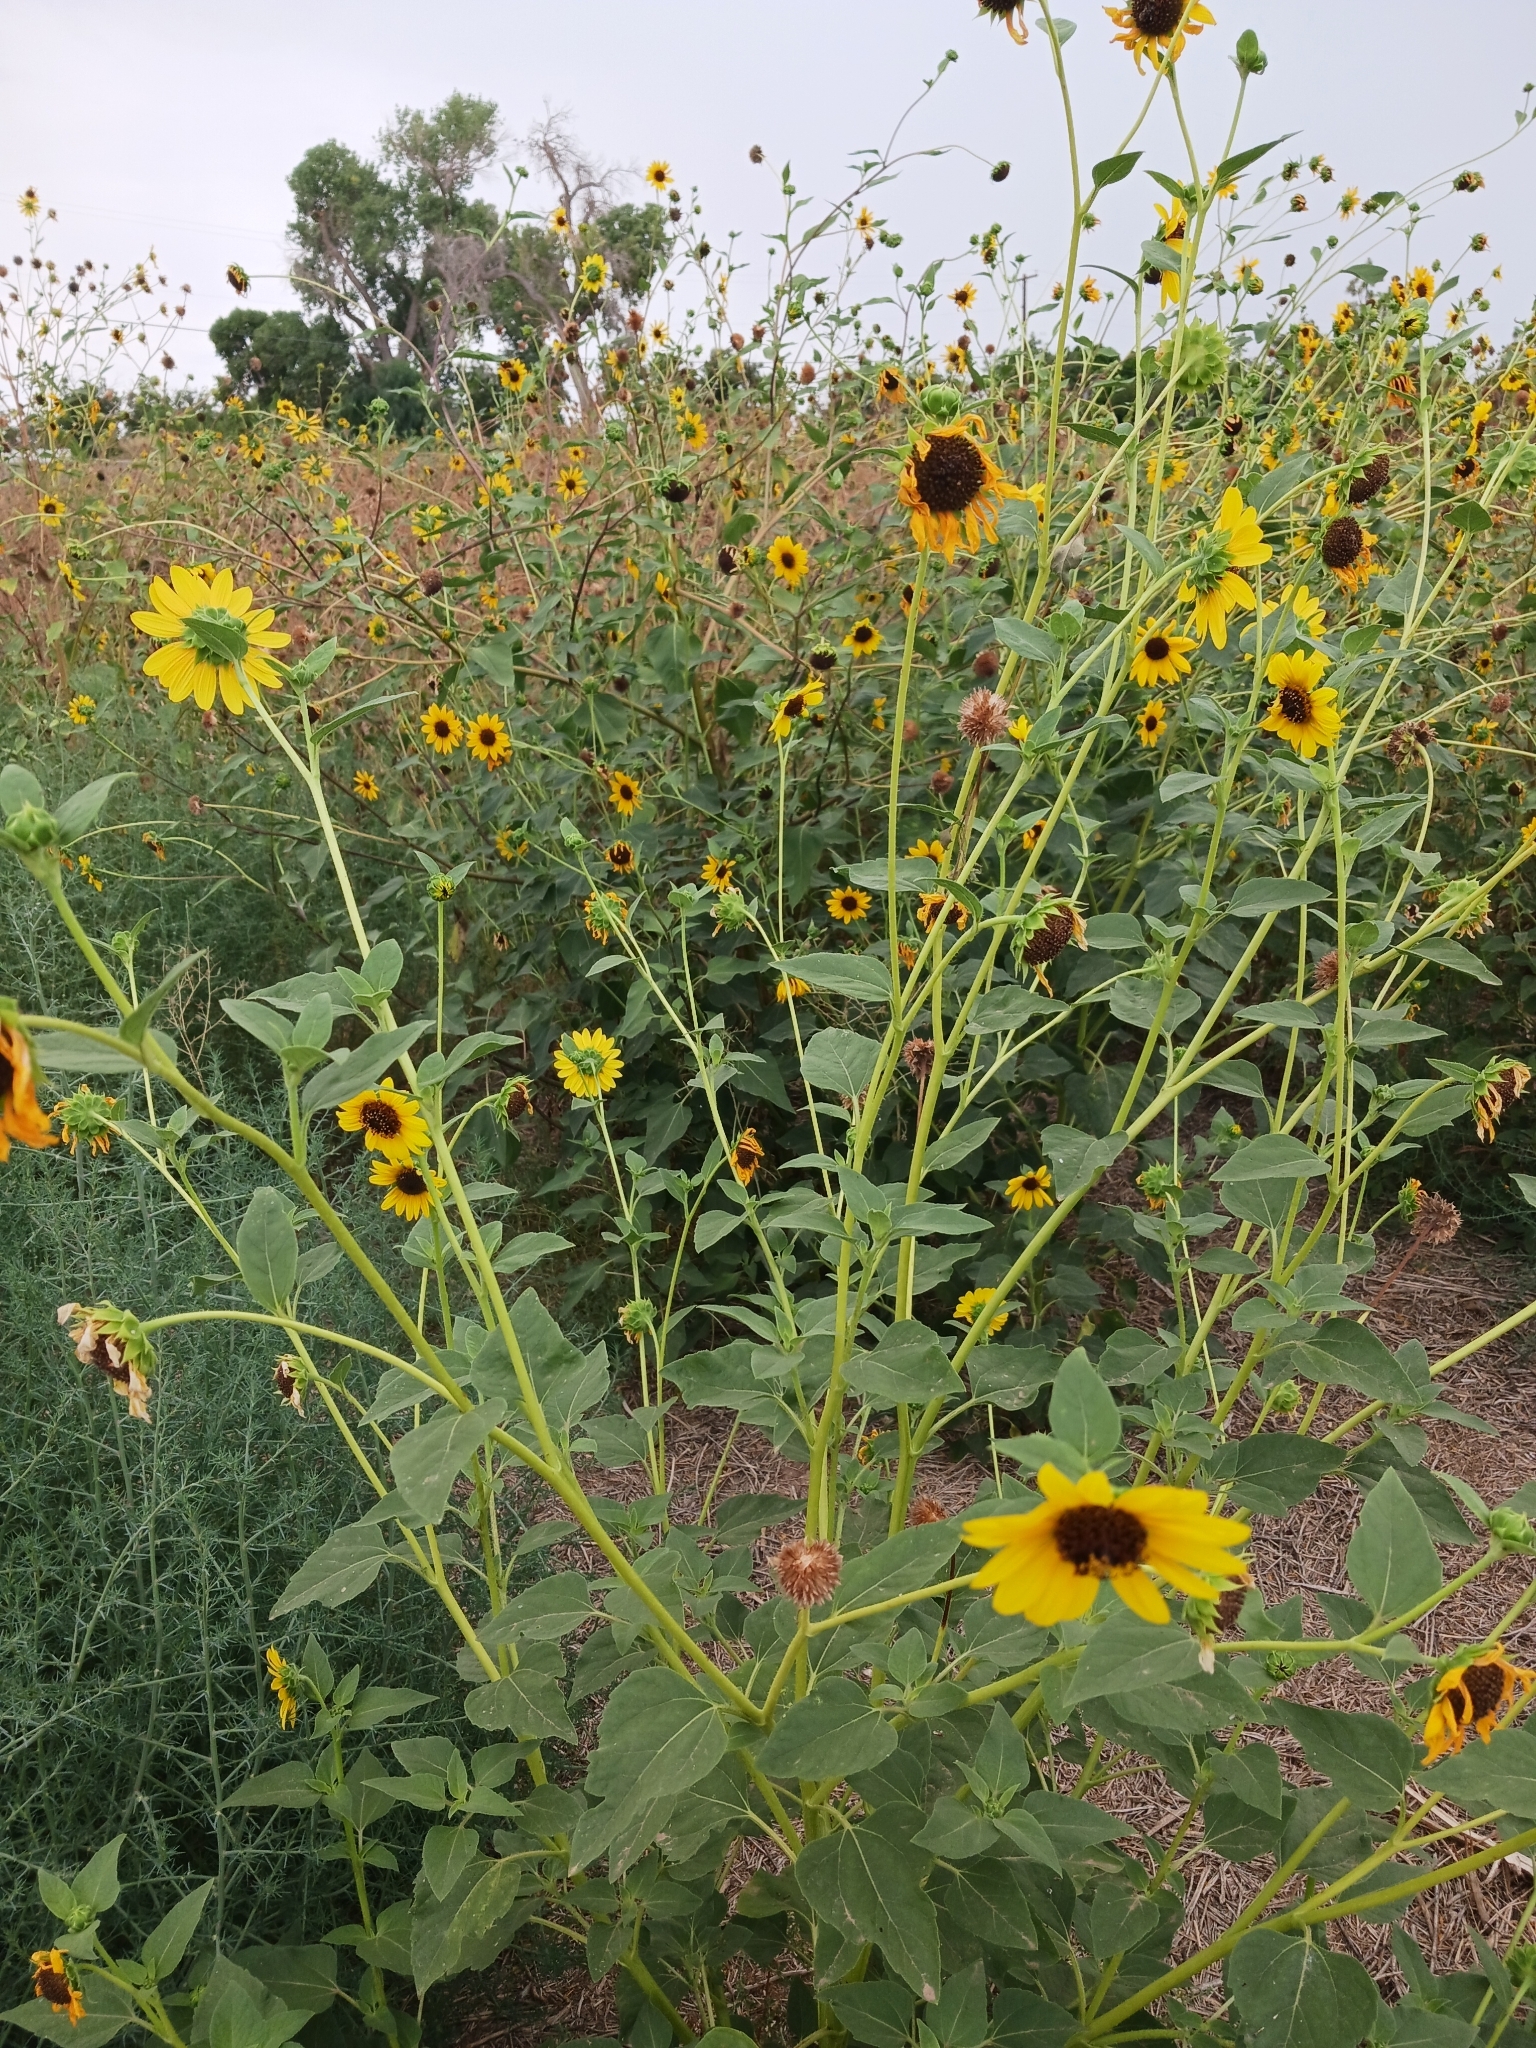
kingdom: Plantae
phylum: Tracheophyta
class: Magnoliopsida
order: Asterales
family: Asteraceae
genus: Helianthus
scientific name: Helianthus annuus
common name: Sunflower
